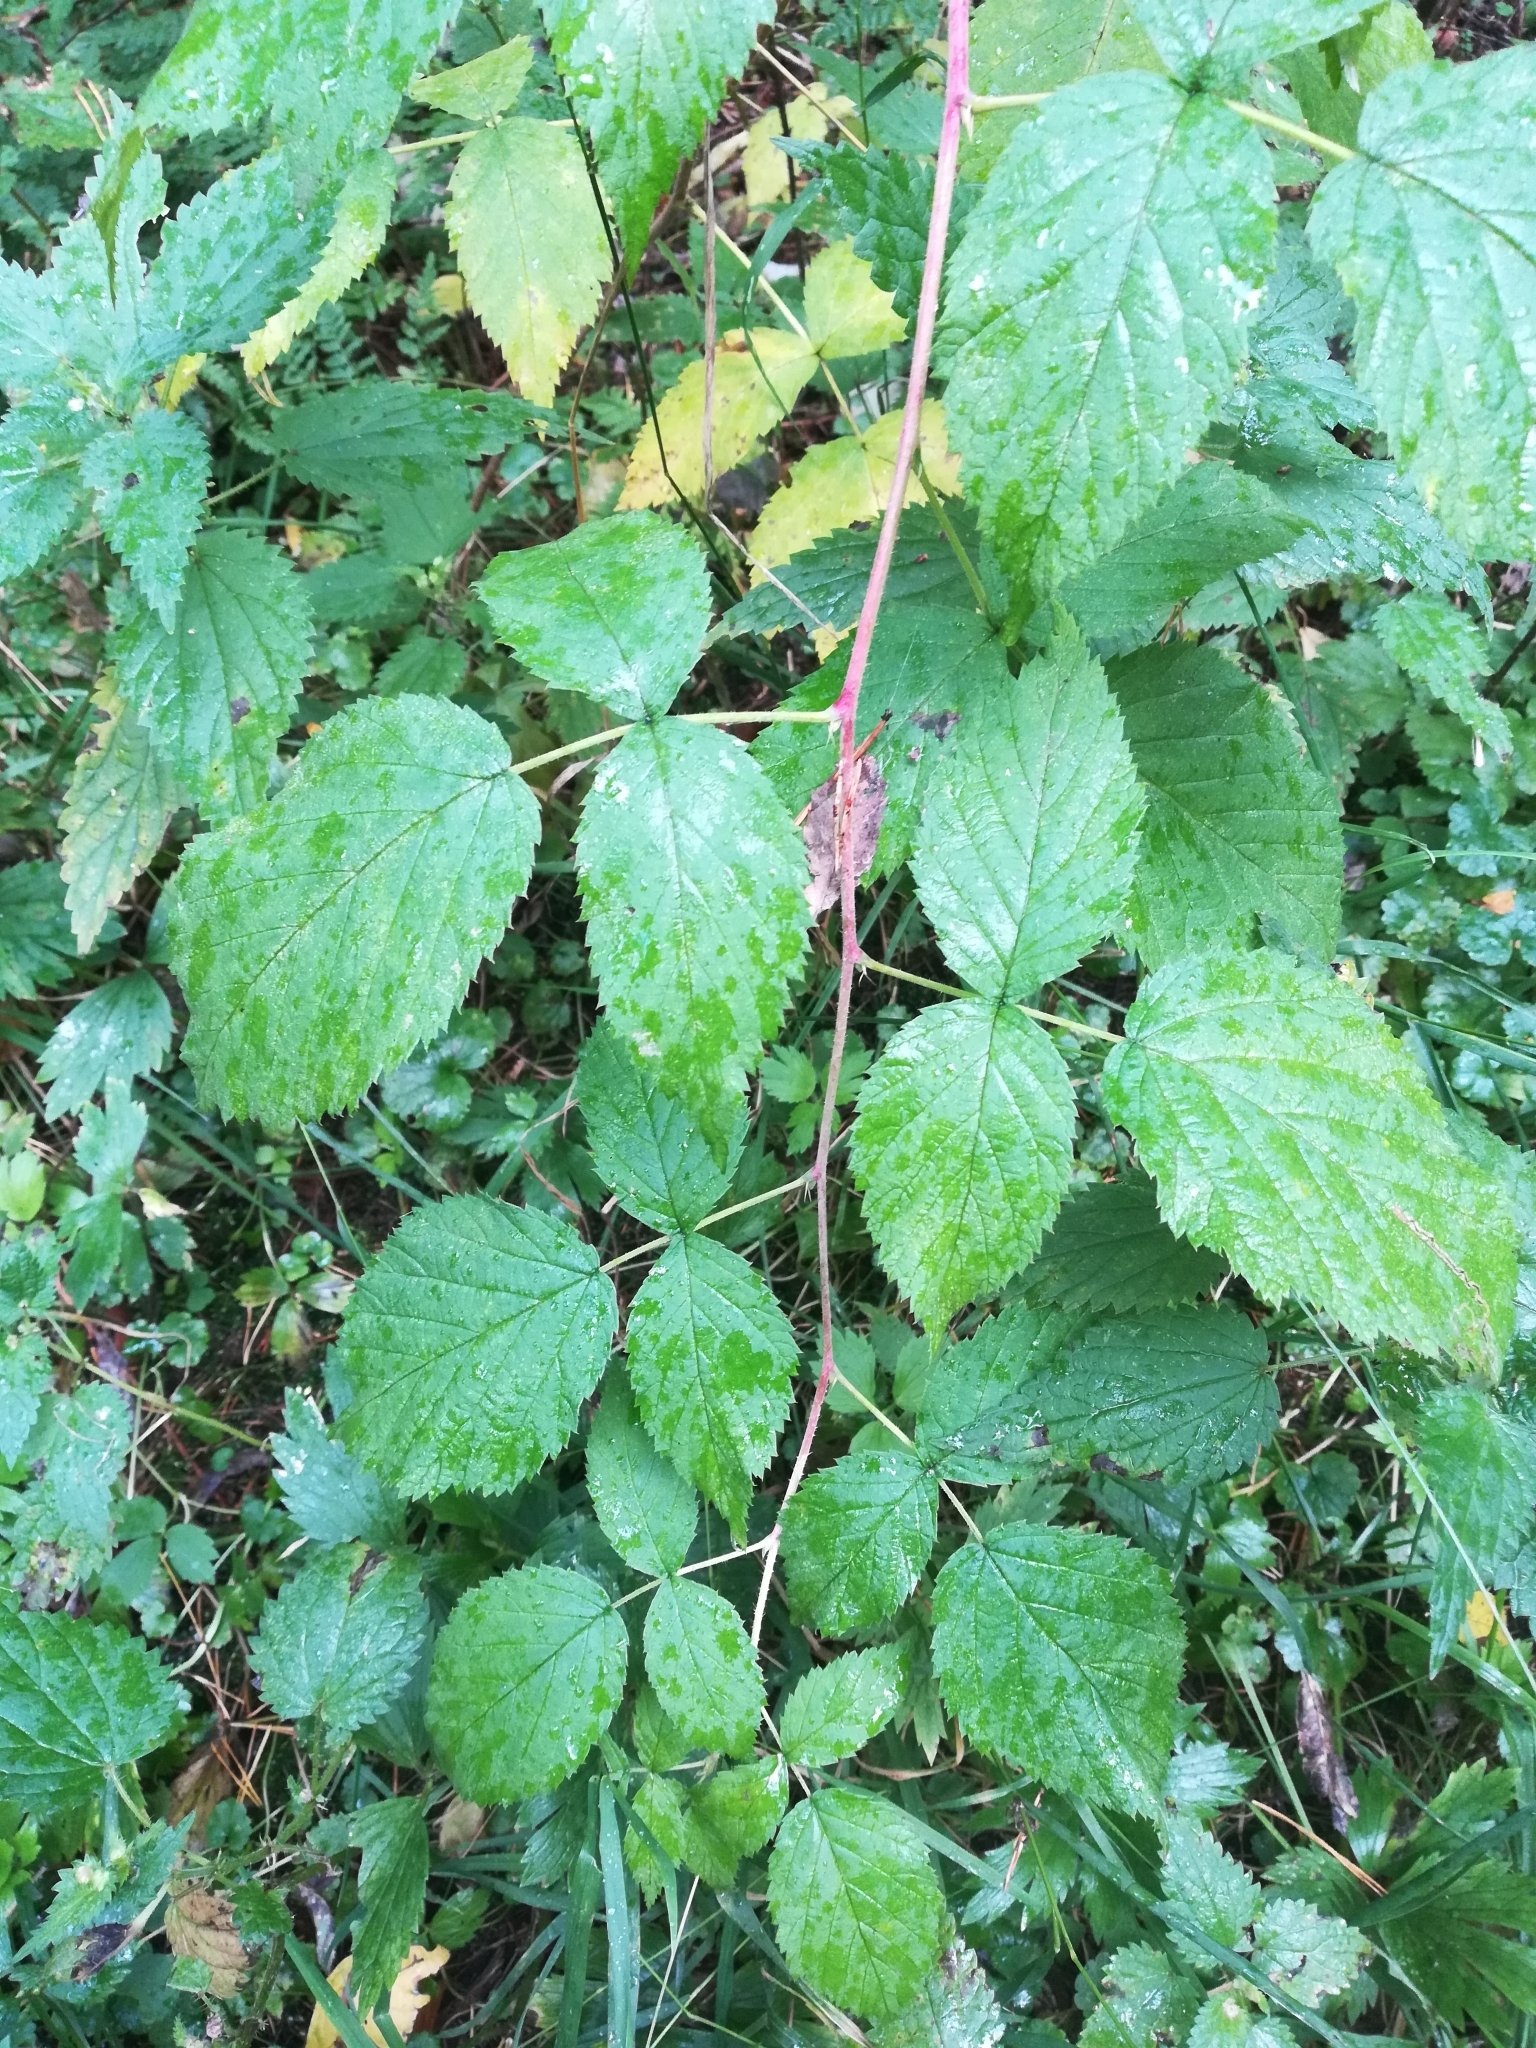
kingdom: Plantae
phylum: Tracheophyta
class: Magnoliopsida
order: Rosales
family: Rosaceae
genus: Rubus
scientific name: Rubus idaeus
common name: Raspberry
